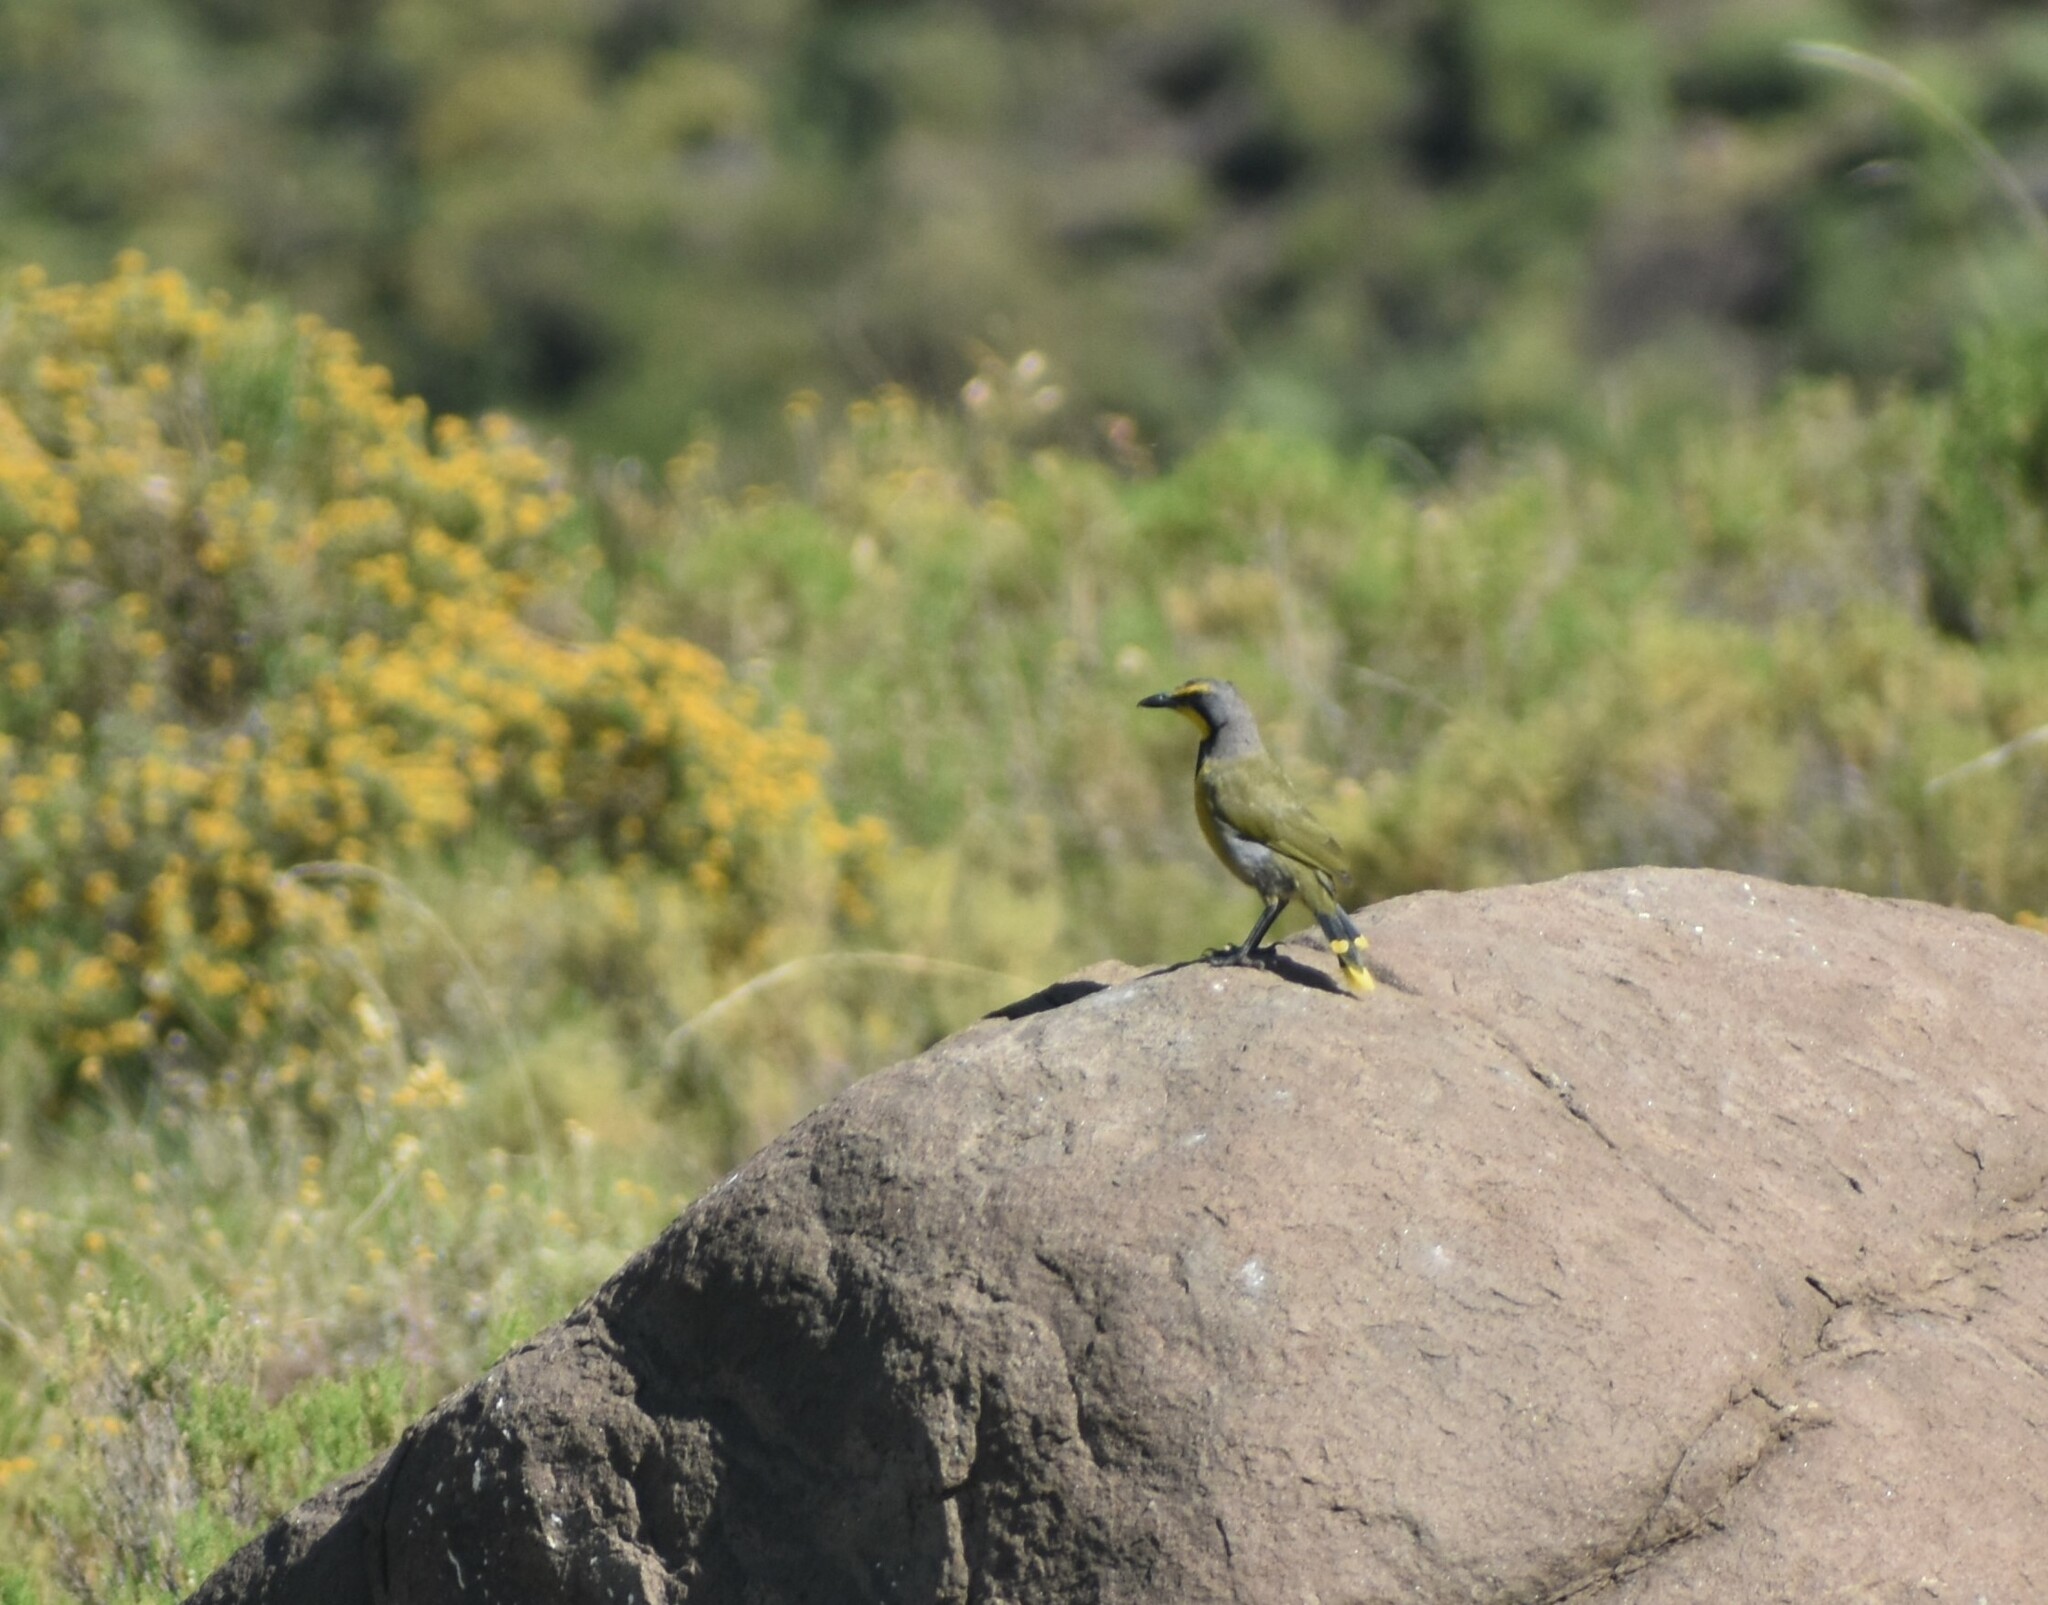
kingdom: Animalia
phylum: Chordata
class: Aves
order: Passeriformes
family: Malaconotidae
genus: Telophorus
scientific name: Telophorus zeylonus
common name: Bokmakierie
